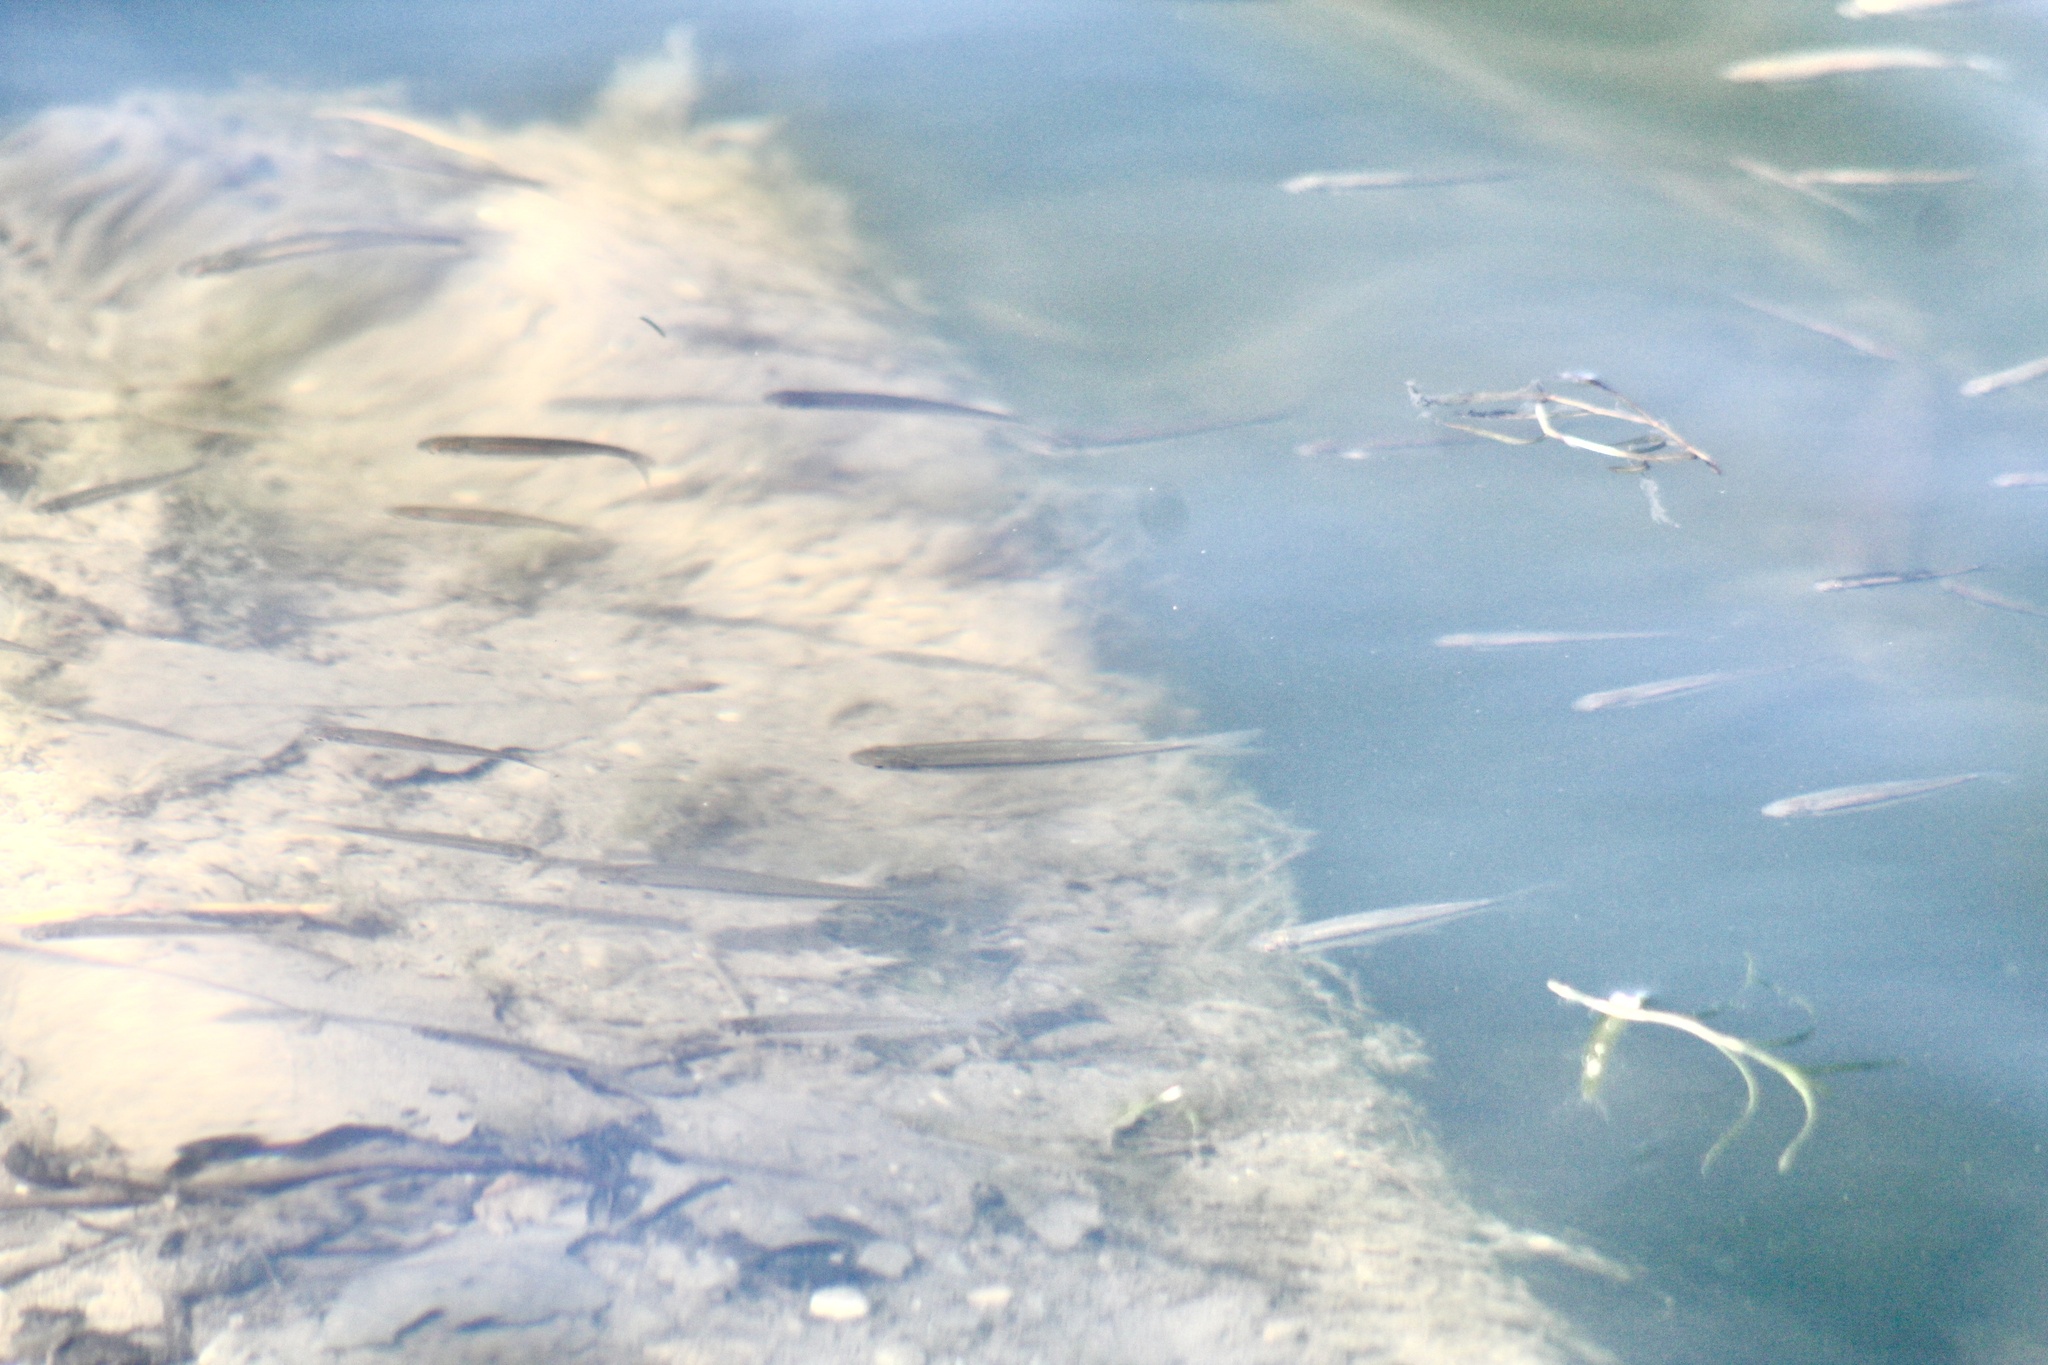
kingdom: Animalia
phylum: Chordata
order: Cyprinodontiformes
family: Fundulidae
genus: Fundulus
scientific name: Fundulus notatus
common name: Blackstripe topminnow
